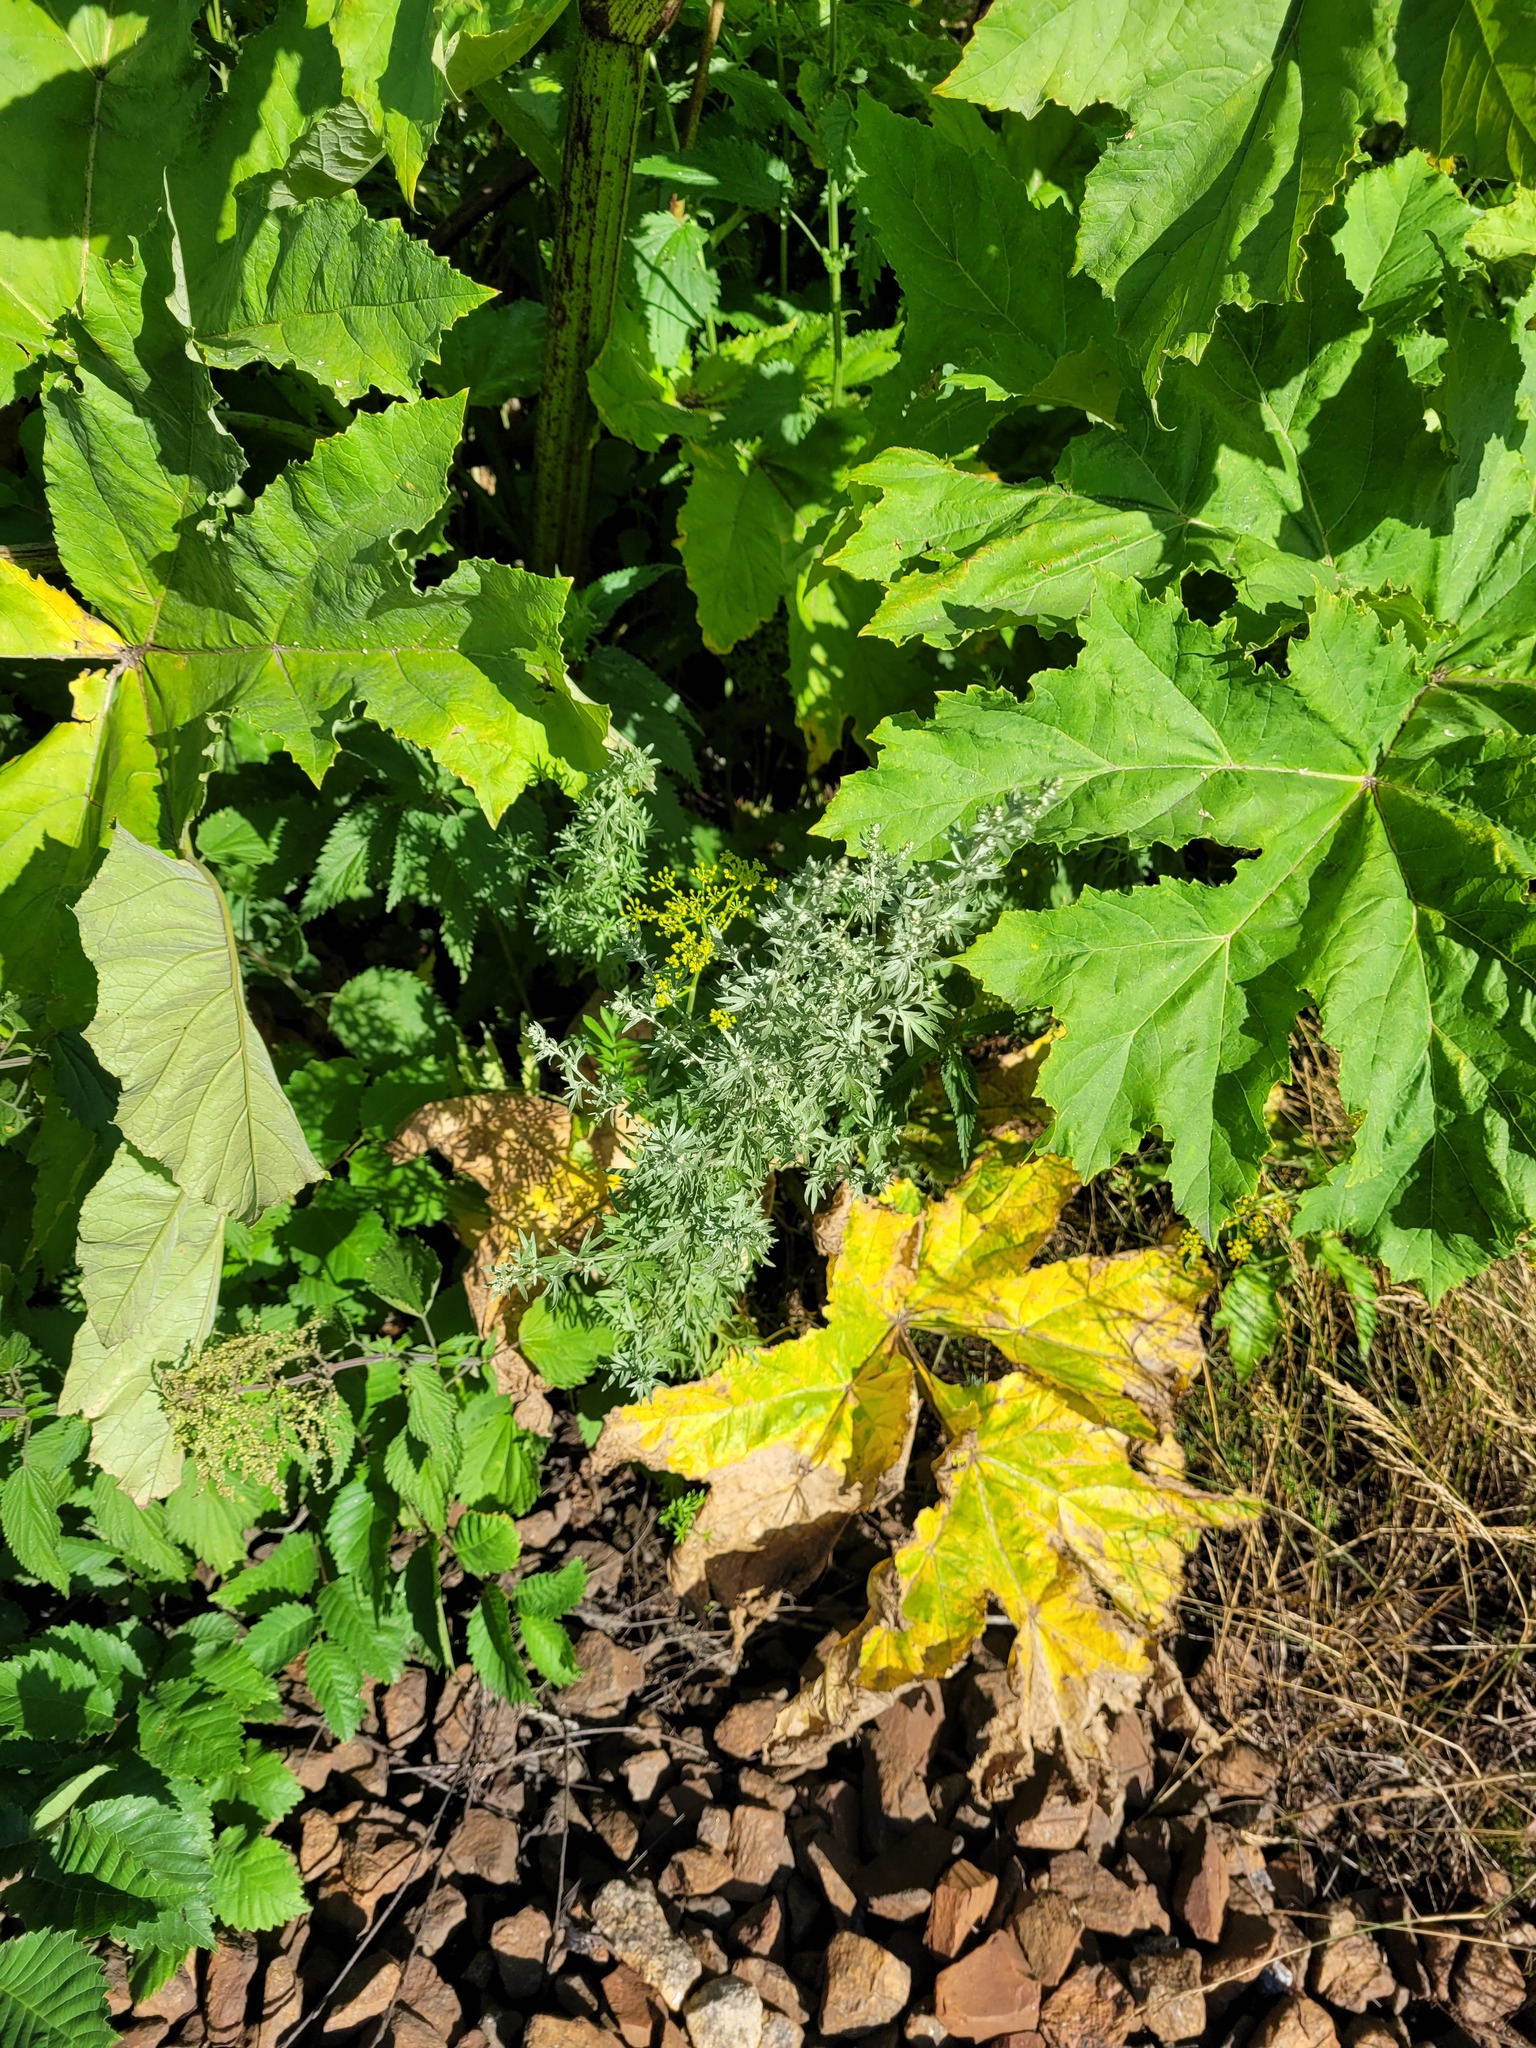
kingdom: Plantae
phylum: Tracheophyta
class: Magnoliopsida
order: Asterales
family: Asteraceae
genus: Artemisia
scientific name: Artemisia absinthium
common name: Wormwood
